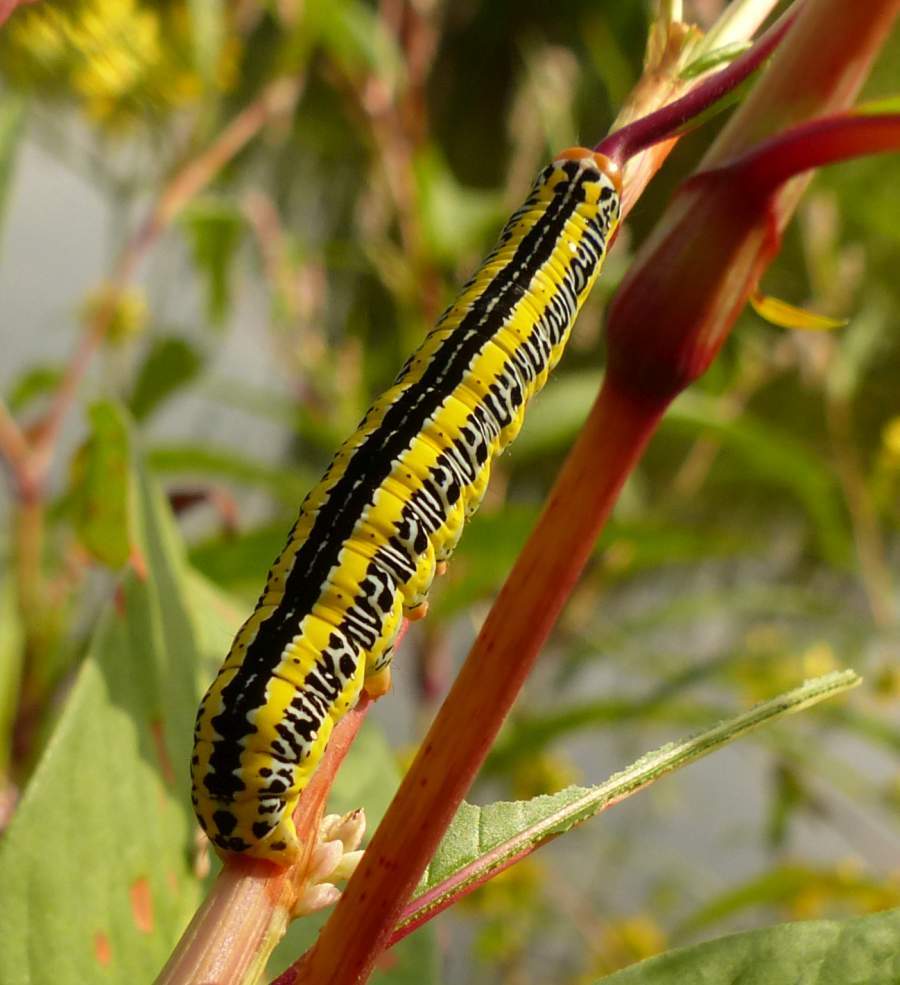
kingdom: Animalia
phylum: Arthropoda
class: Insecta
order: Lepidoptera
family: Noctuidae
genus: Melanchra
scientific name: Melanchra picta
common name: Zebra caterpillar
